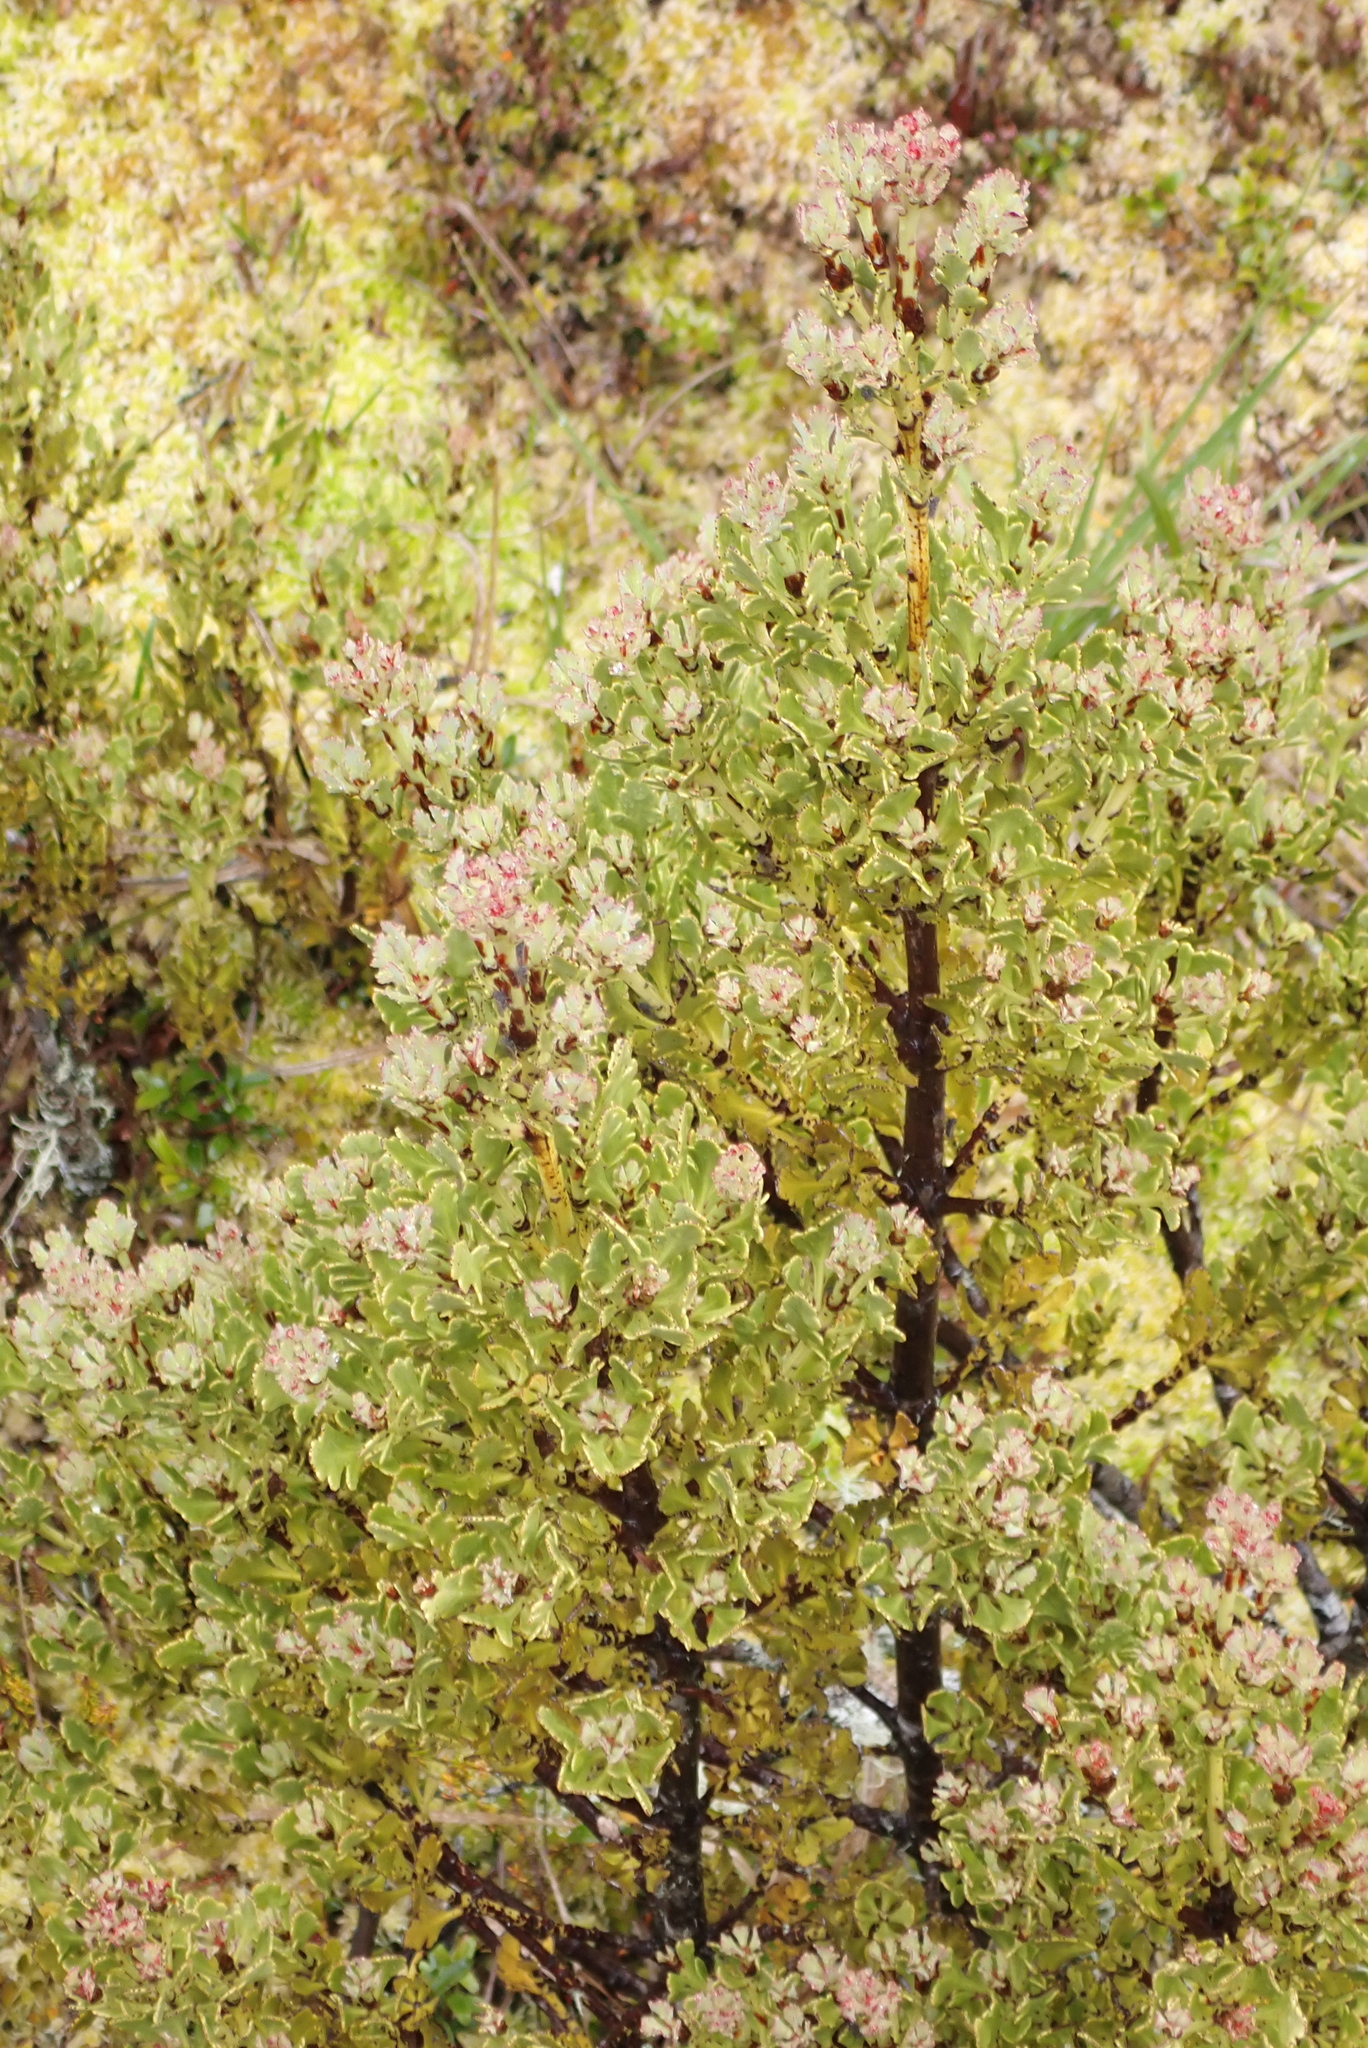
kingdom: Plantae
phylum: Tracheophyta
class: Pinopsida
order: Pinales
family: Phyllocladaceae
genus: Phyllocladus
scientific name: Phyllocladus trichomanoides
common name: Celery pine
